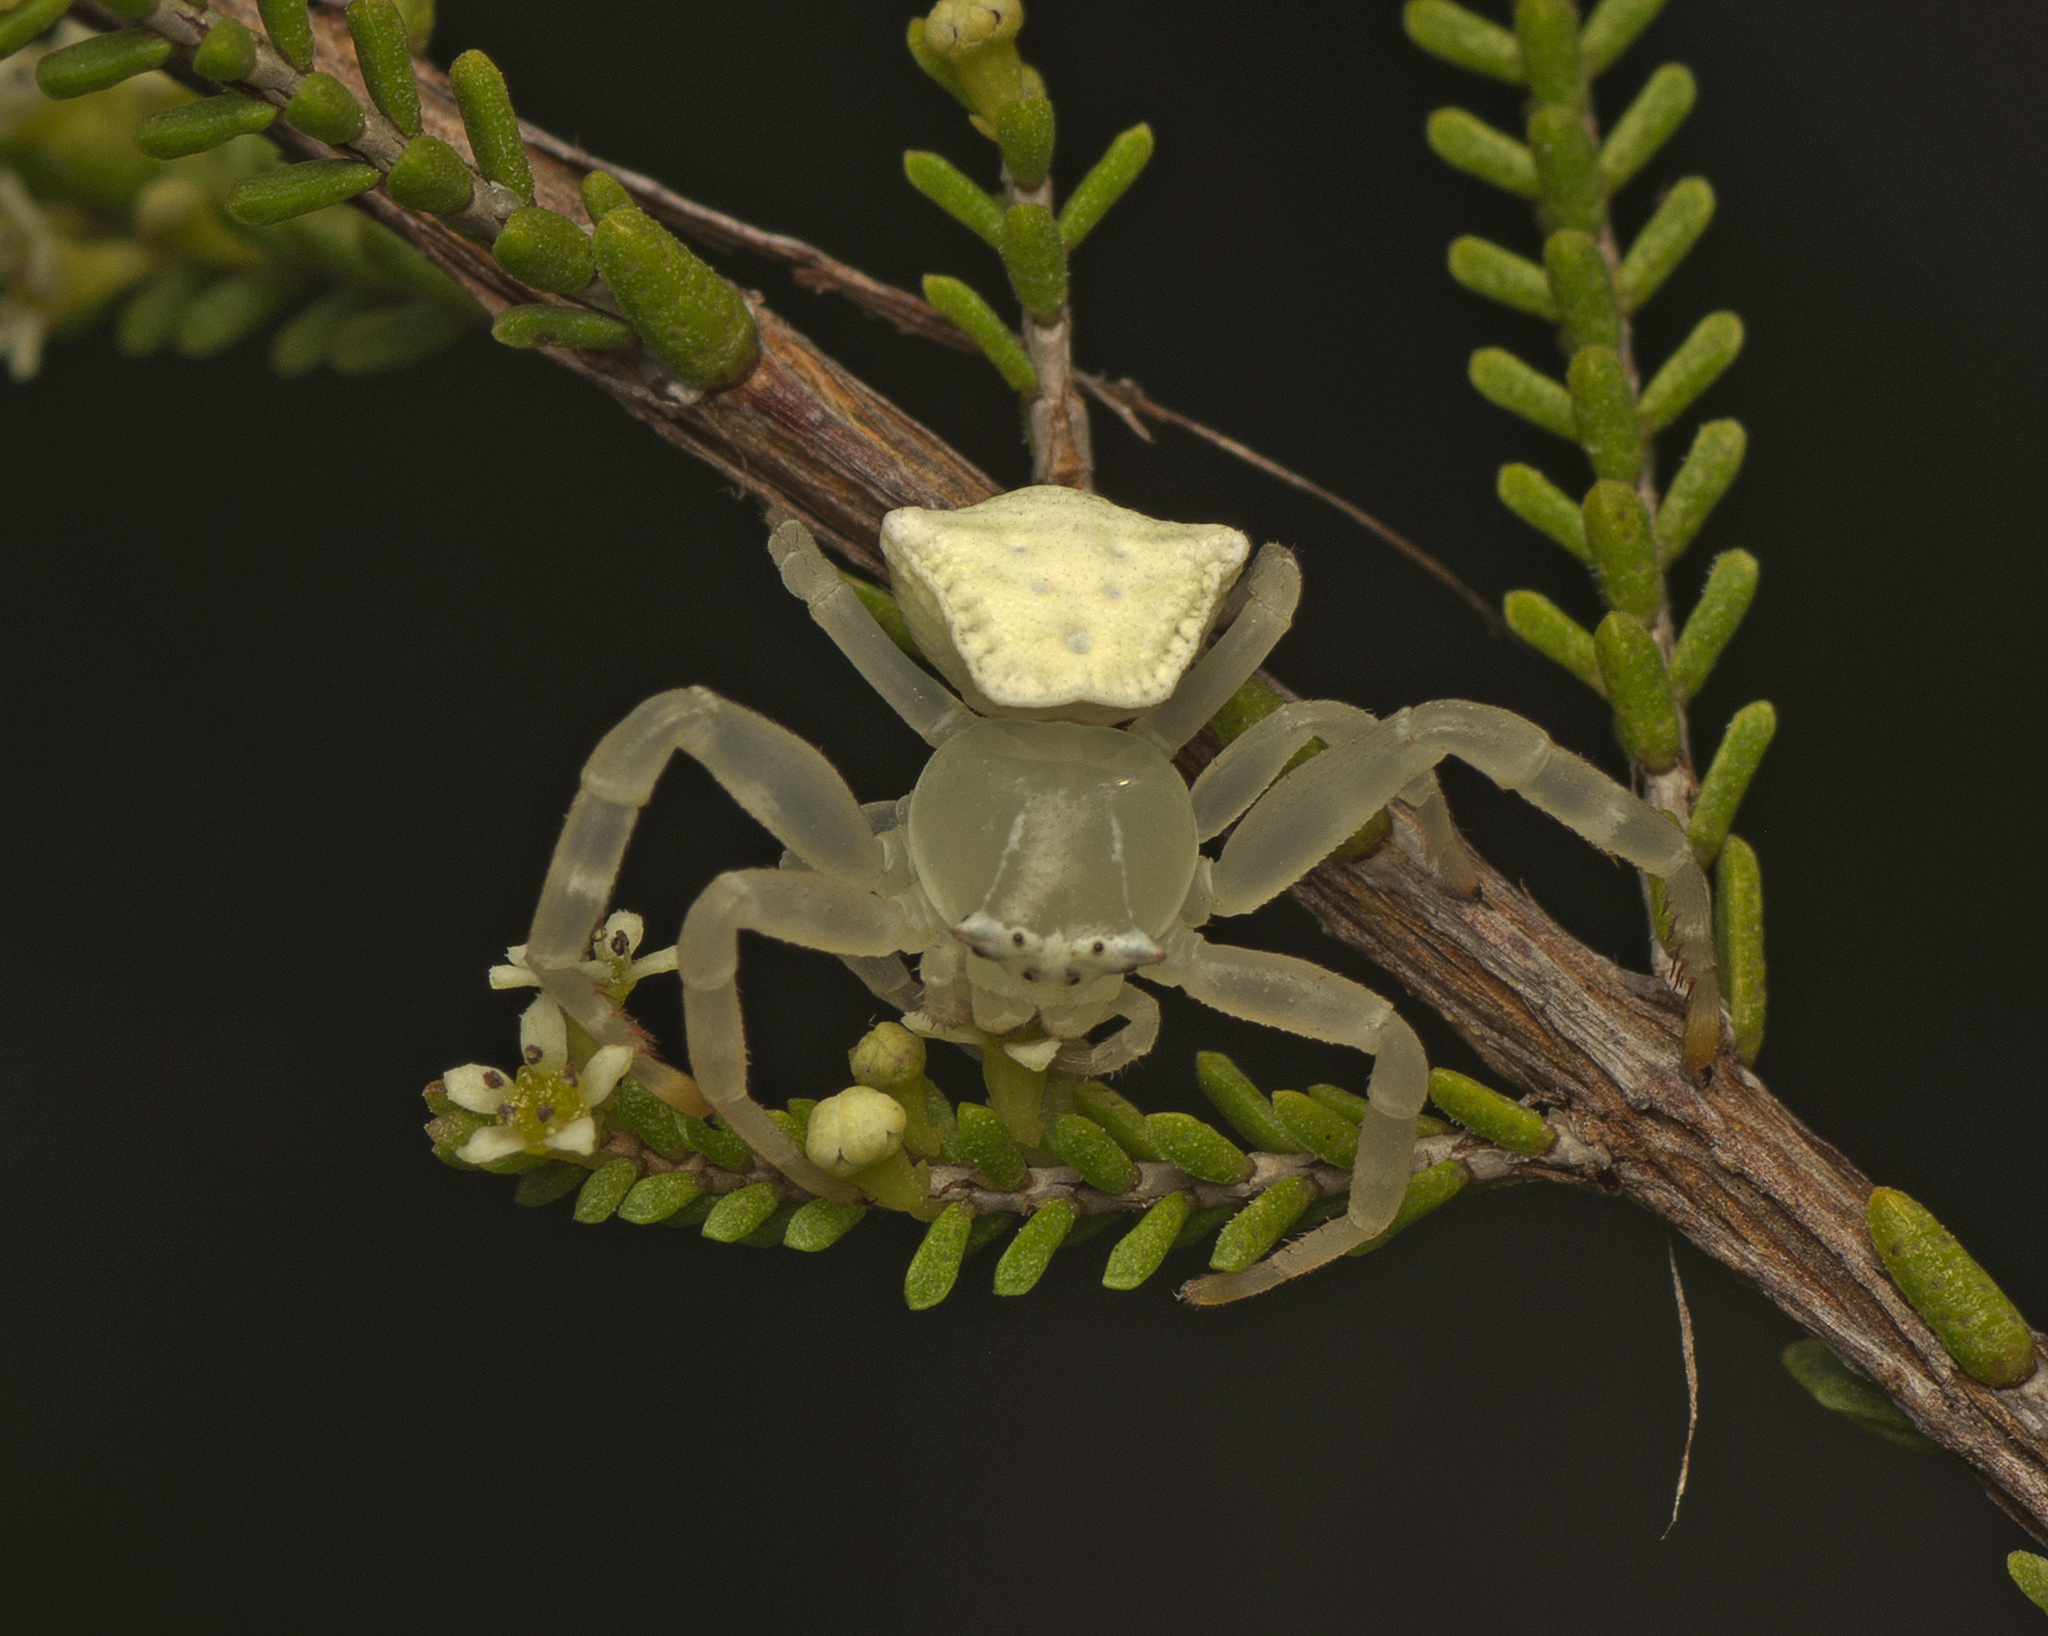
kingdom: Animalia
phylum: Arthropoda
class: Arachnida
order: Araneae
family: Thomisidae
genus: Thomisus
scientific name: Thomisus spectabilis
